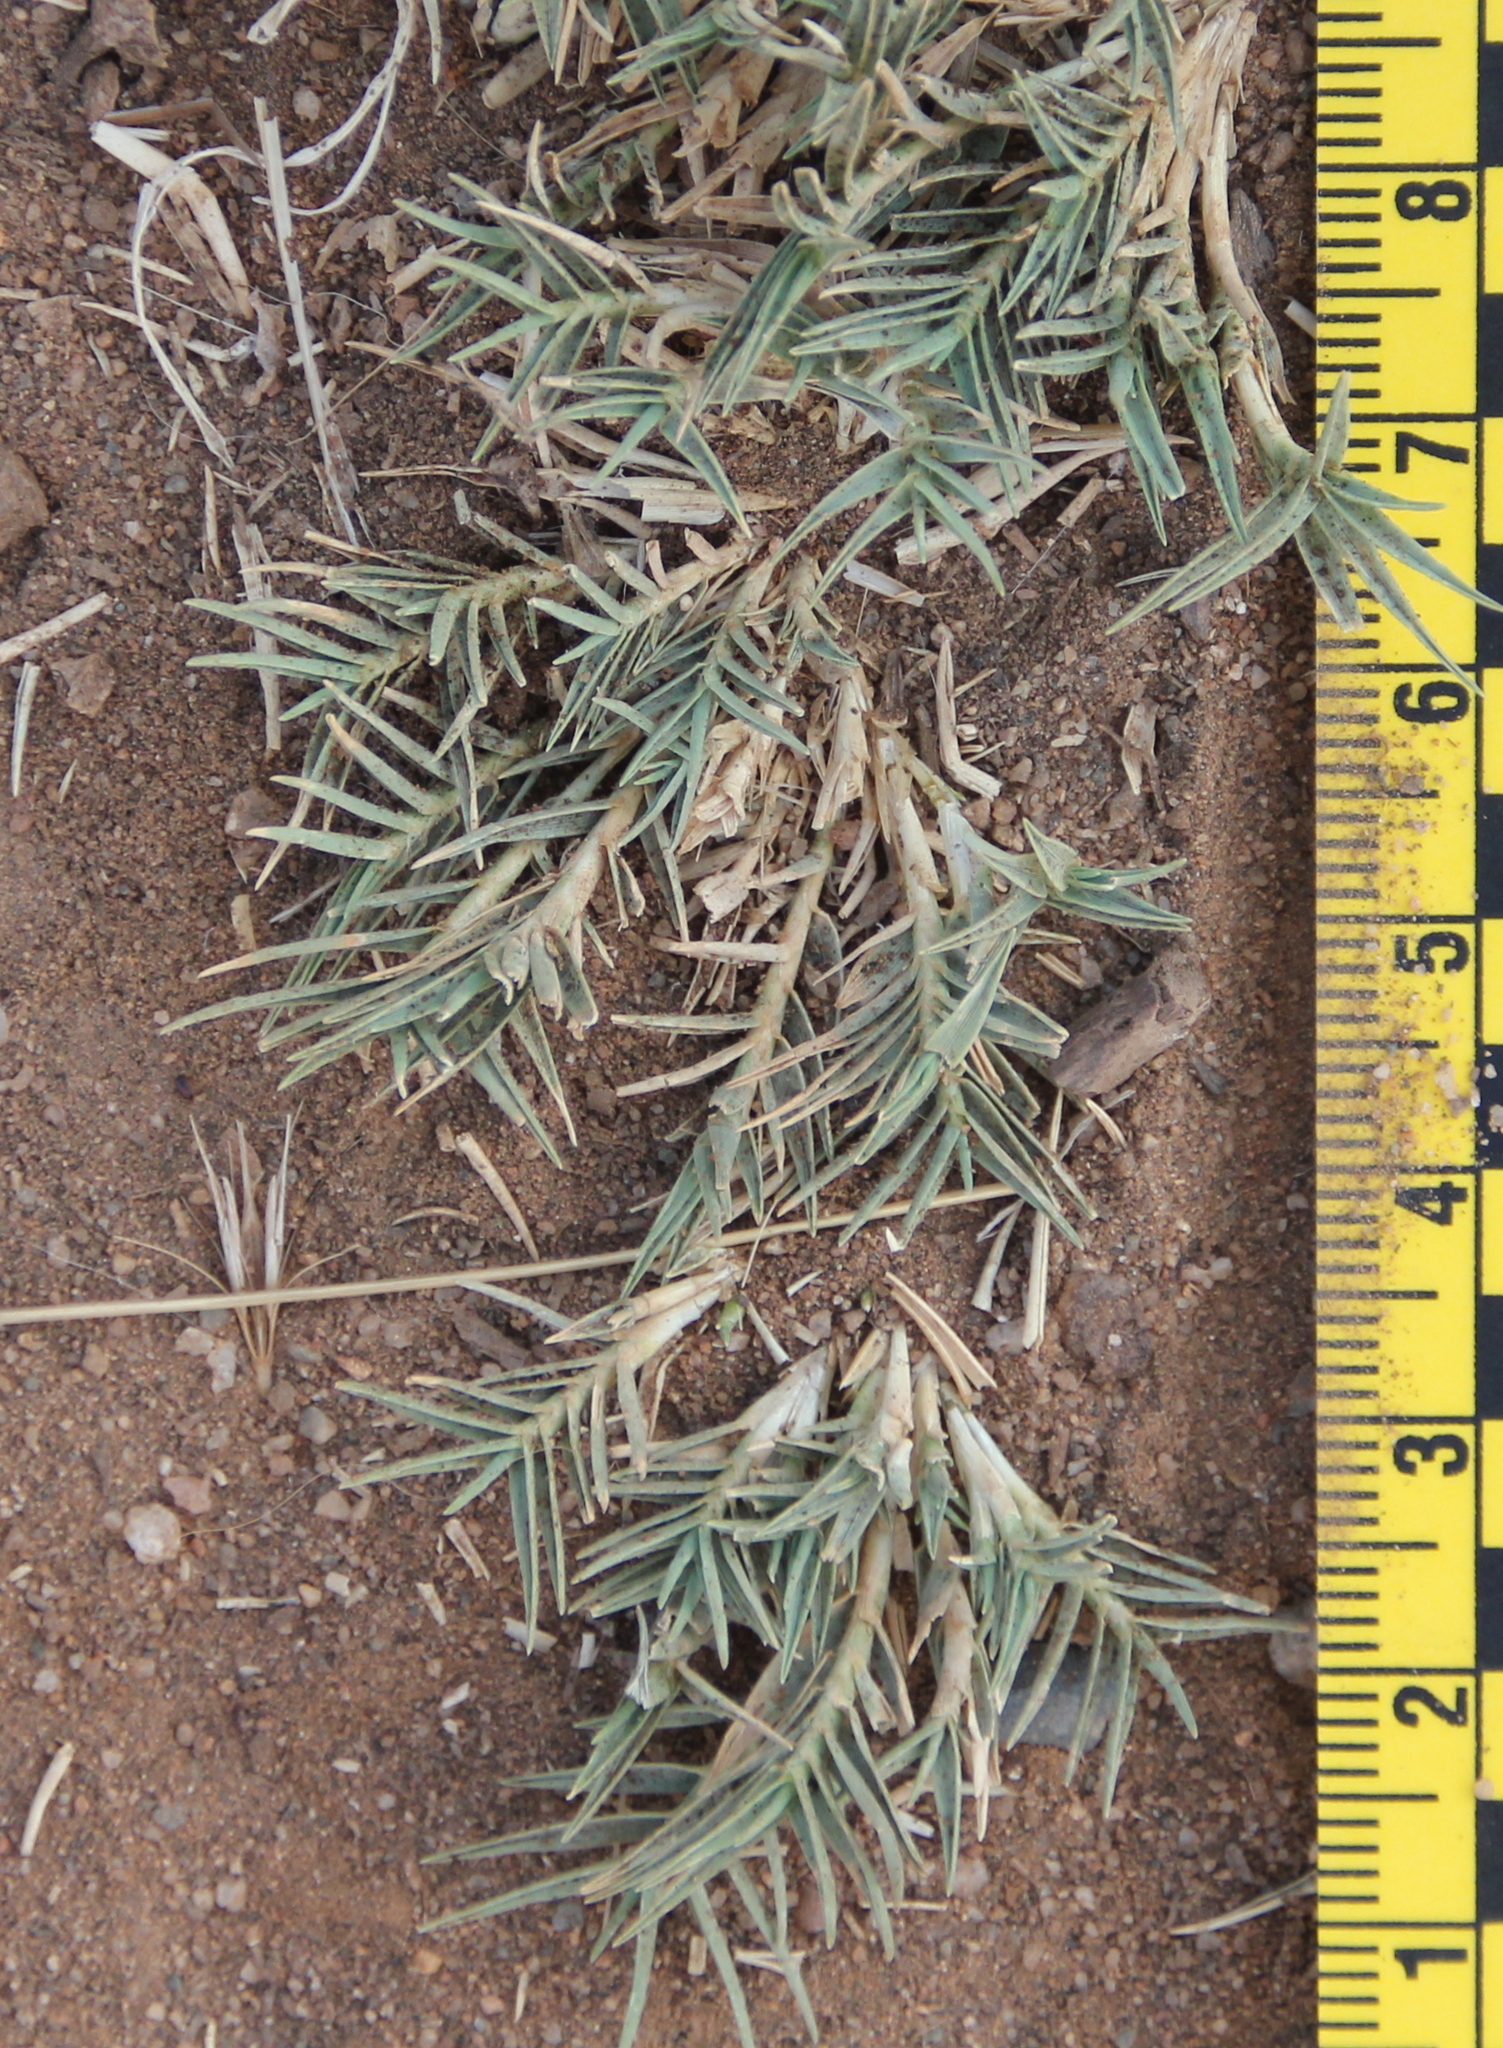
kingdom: Plantae
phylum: Tracheophyta
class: Liliopsida
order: Poales
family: Poaceae
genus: Distichlis
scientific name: Distichlis littoralis
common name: Shore grass
